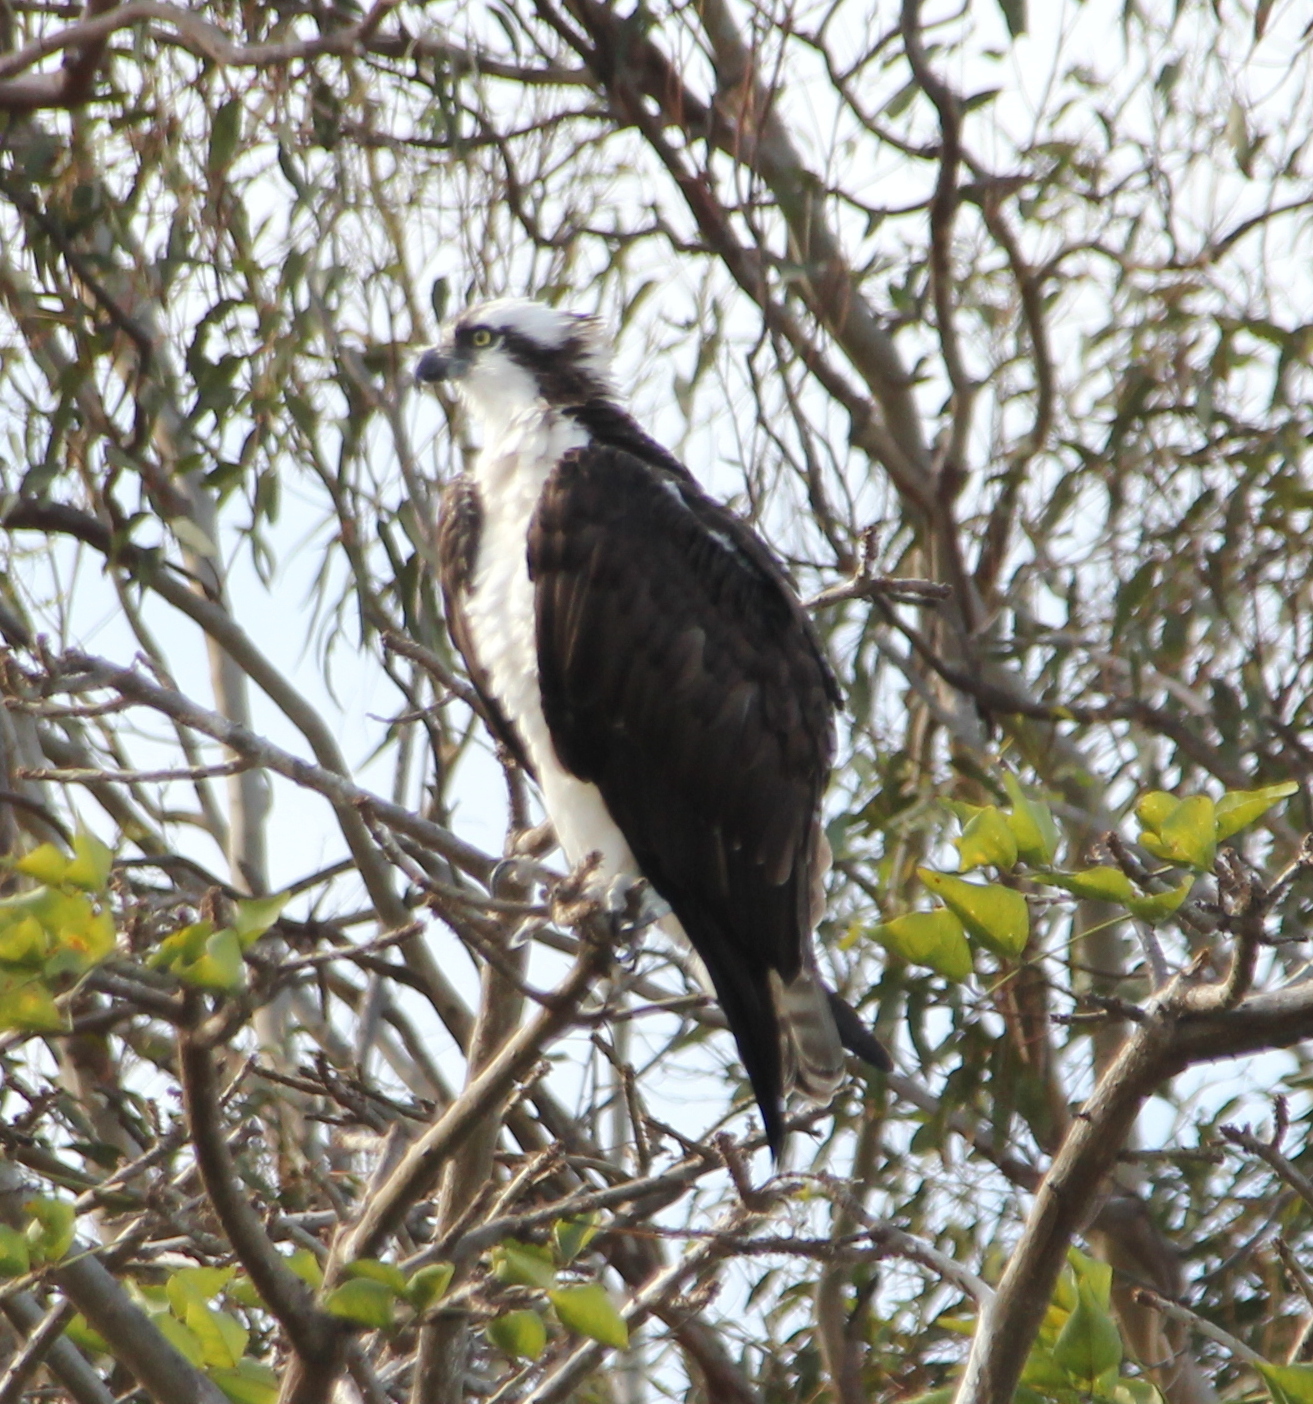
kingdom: Animalia
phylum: Chordata
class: Aves
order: Accipitriformes
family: Pandionidae
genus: Pandion
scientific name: Pandion haliaetus
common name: Osprey
